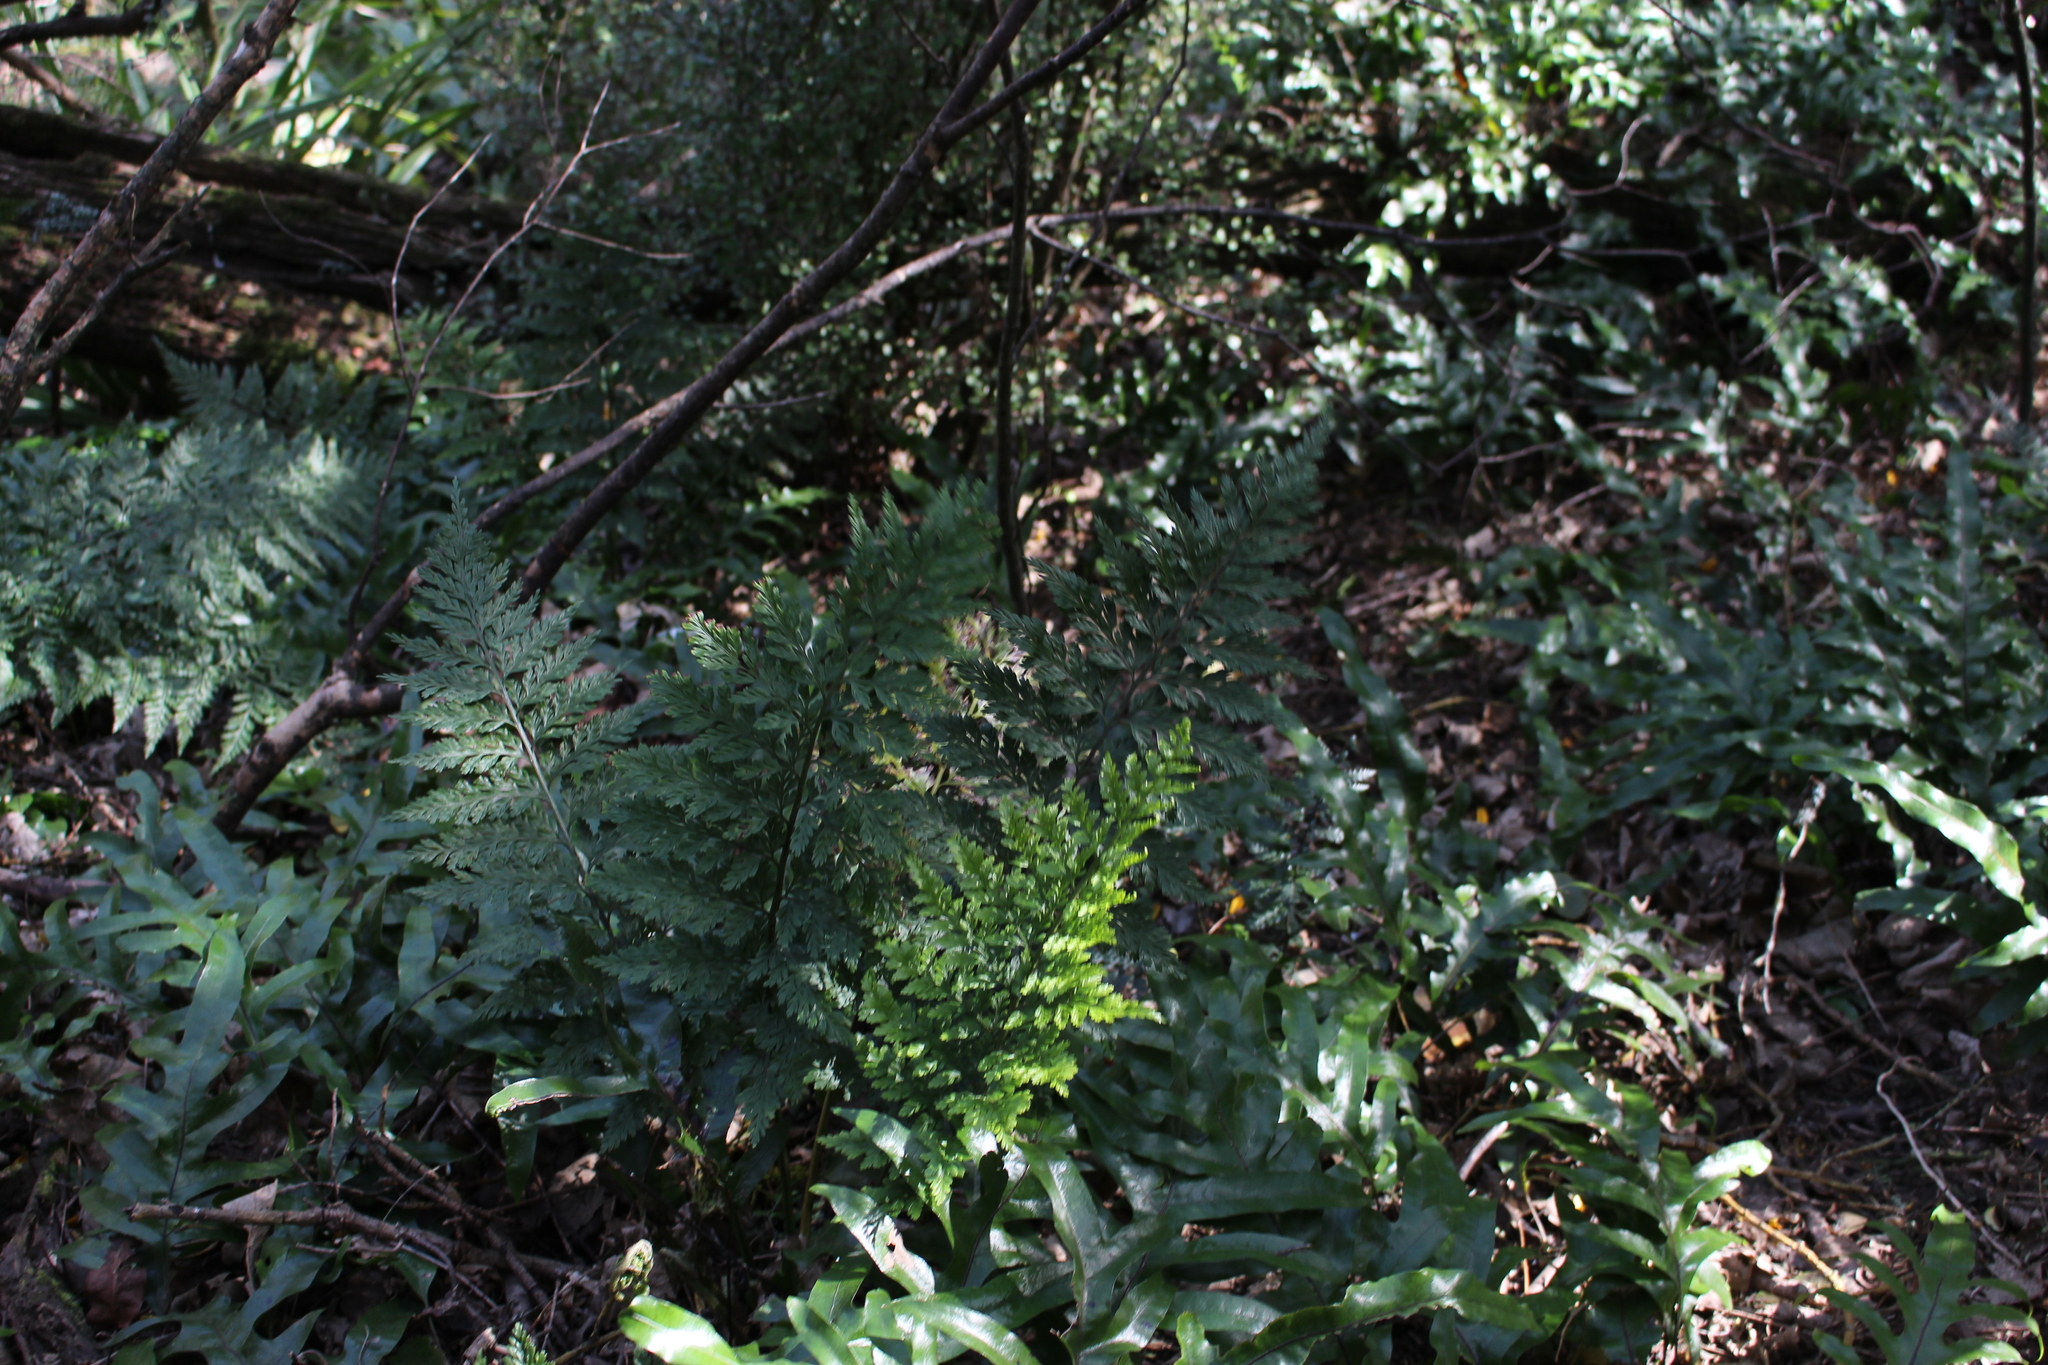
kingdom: Plantae
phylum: Tracheophyta
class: Polypodiopsida
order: Polypodiales
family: Aspleniaceae
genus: Asplenium
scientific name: Asplenium
